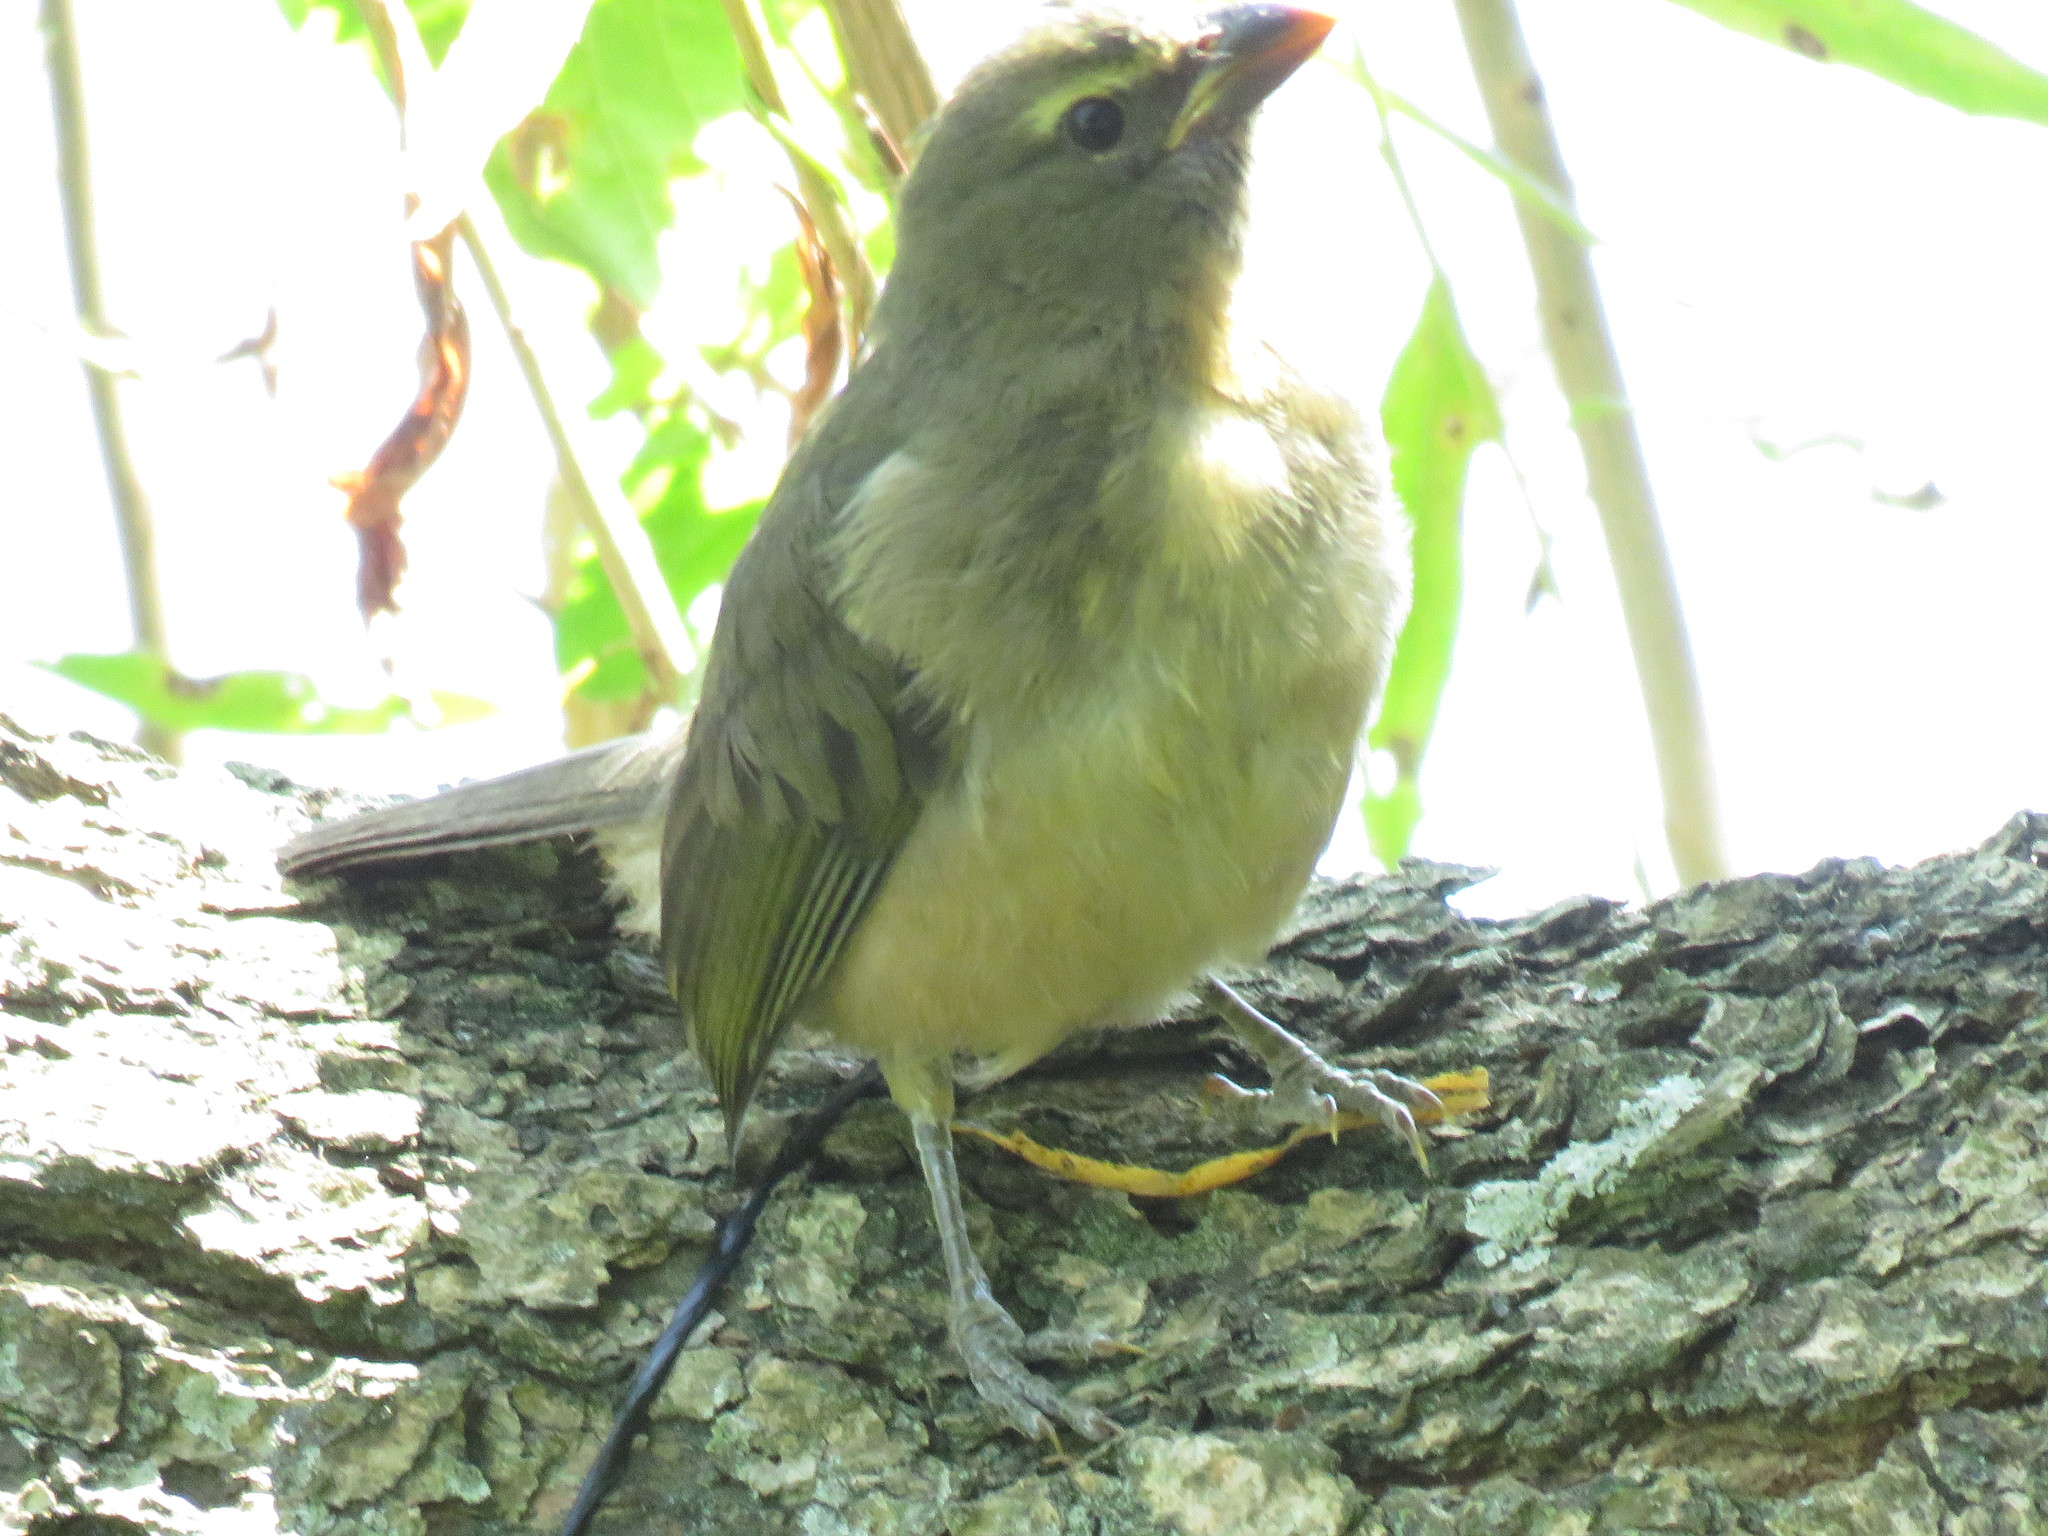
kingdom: Animalia
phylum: Chordata
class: Aves
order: Passeriformes
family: Thraupidae
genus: Saltator
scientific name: Saltator coerulescens
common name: Grayish saltator
